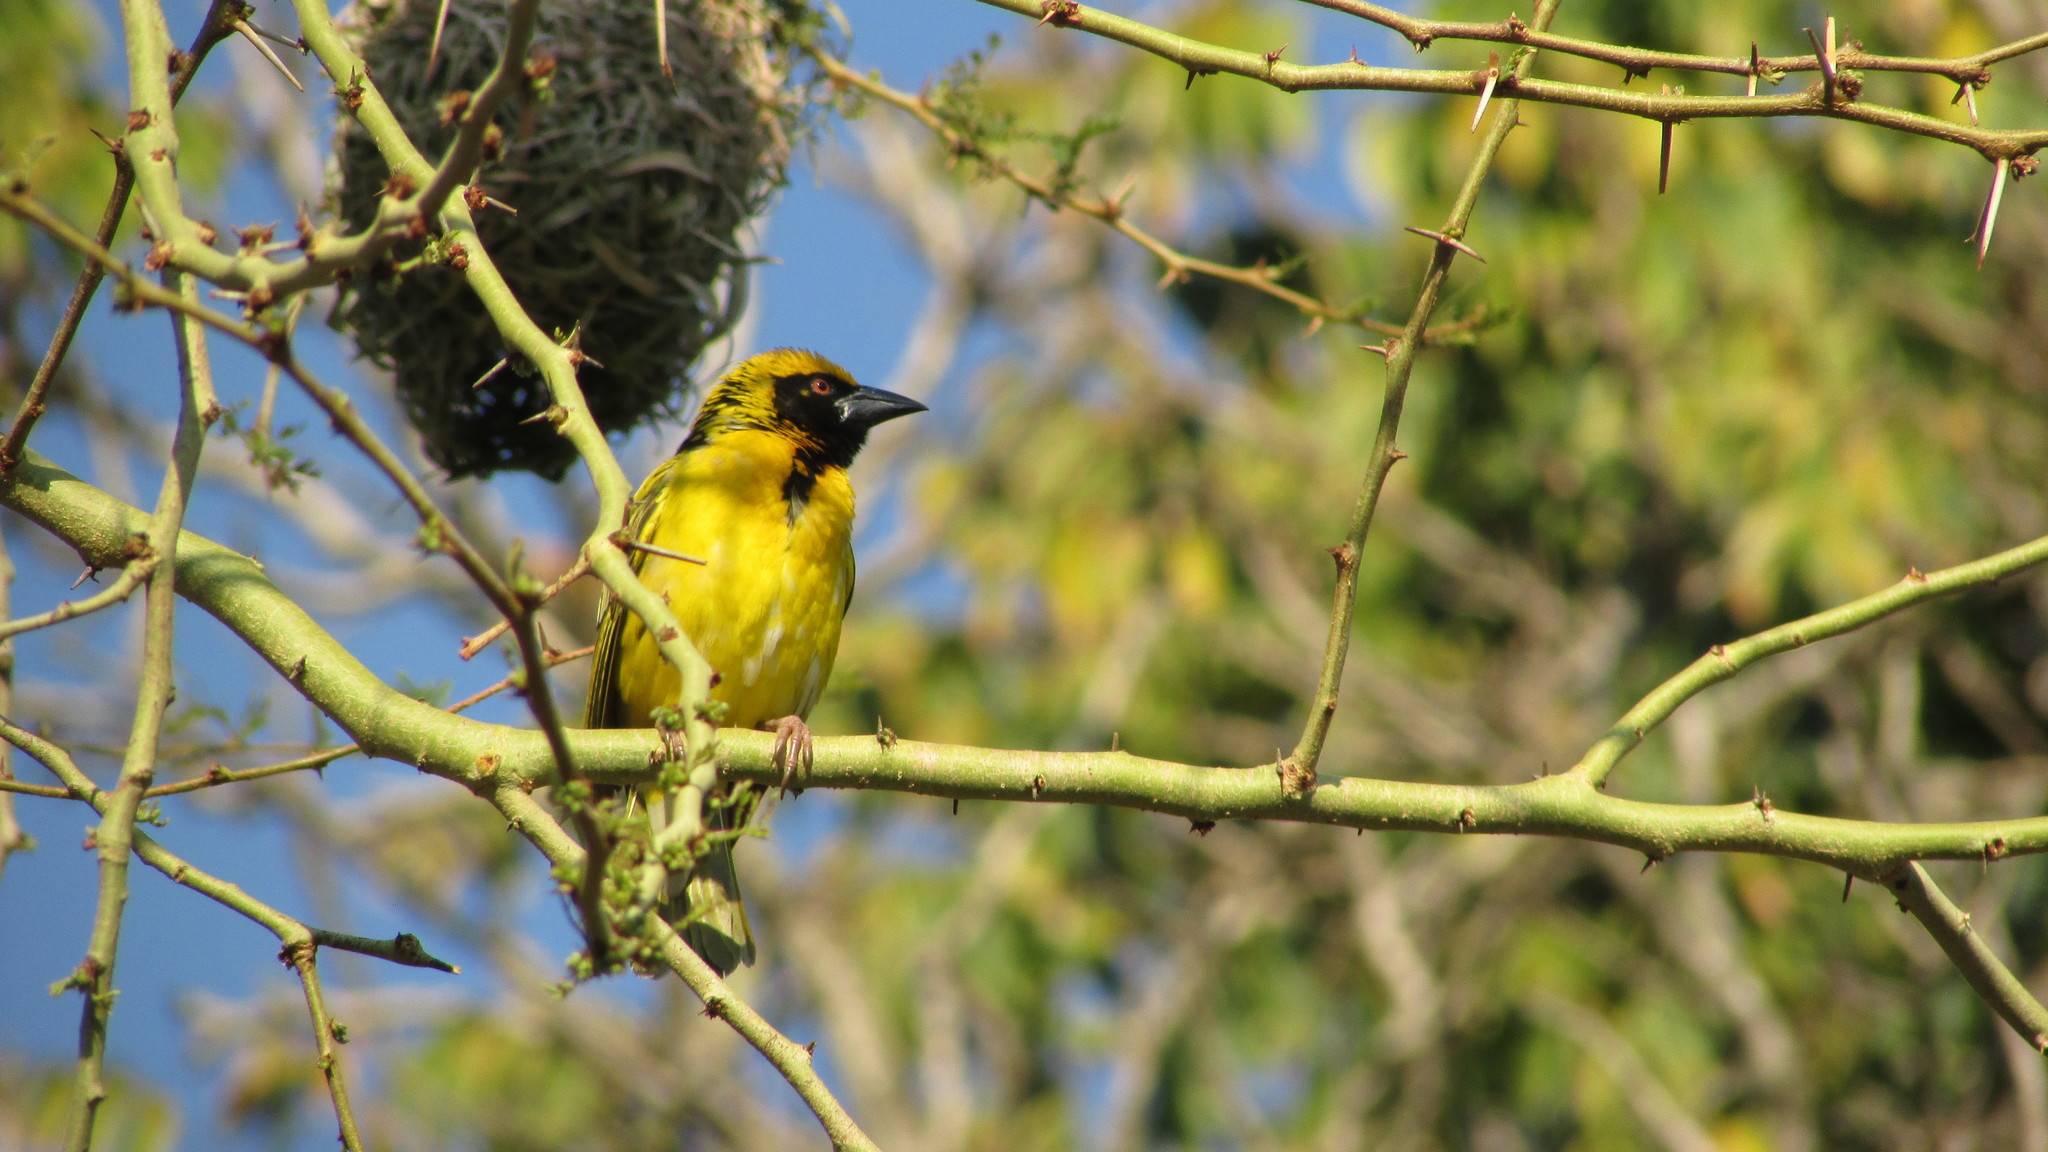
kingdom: Animalia
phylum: Chordata
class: Aves
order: Passeriformes
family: Ploceidae
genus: Ploceus
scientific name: Ploceus cucullatus
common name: Village weaver
